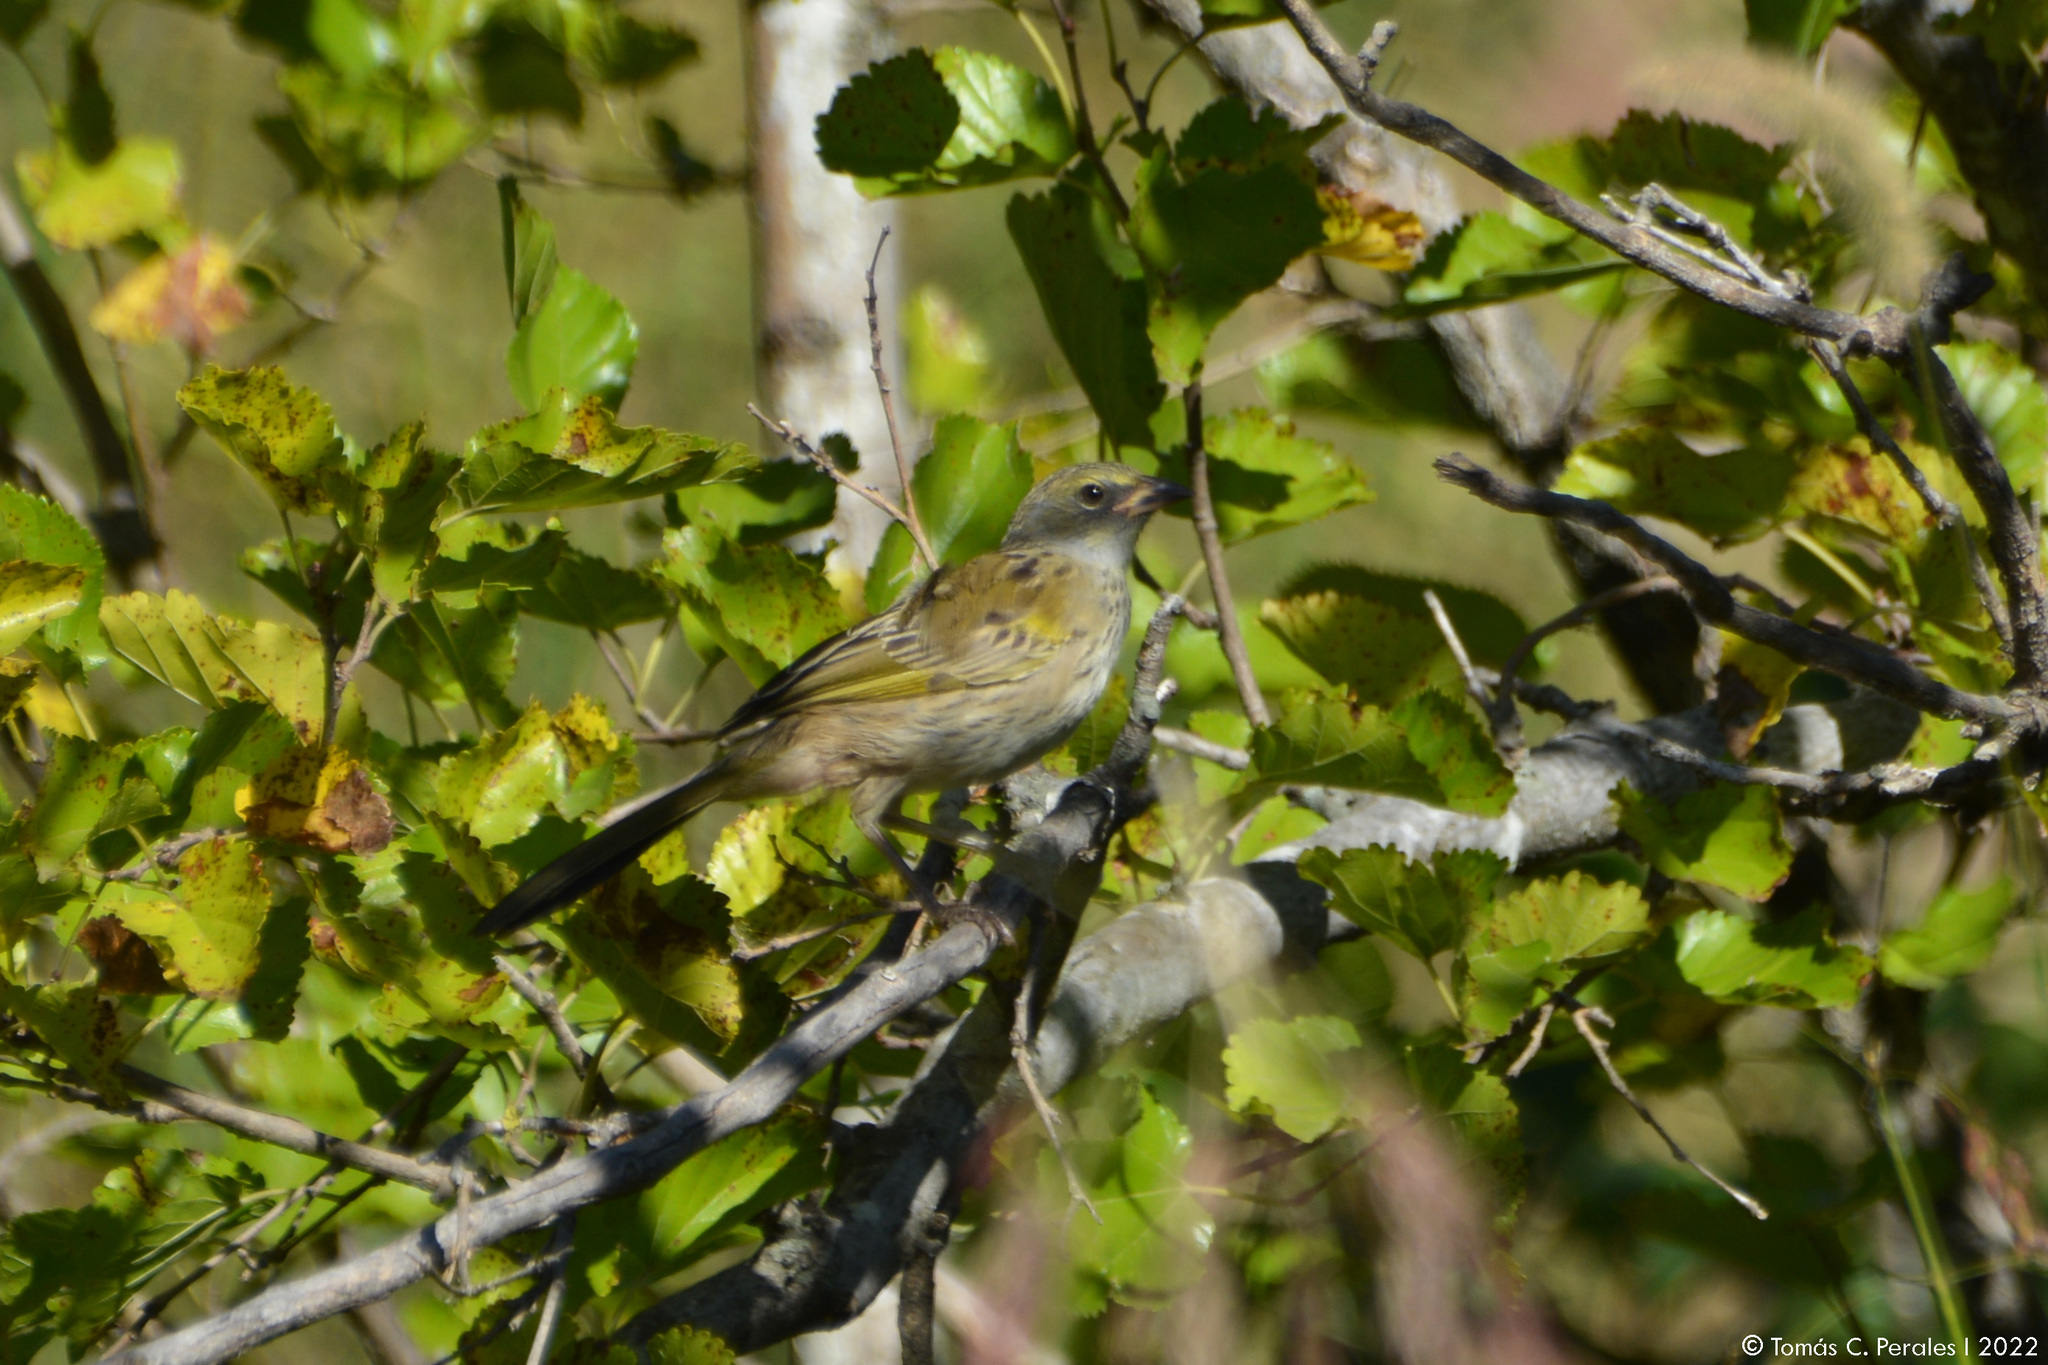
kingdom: Animalia
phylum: Chordata
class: Aves
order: Passeriformes
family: Thraupidae
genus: Embernagra
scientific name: Embernagra platensis
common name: Pampa finch
